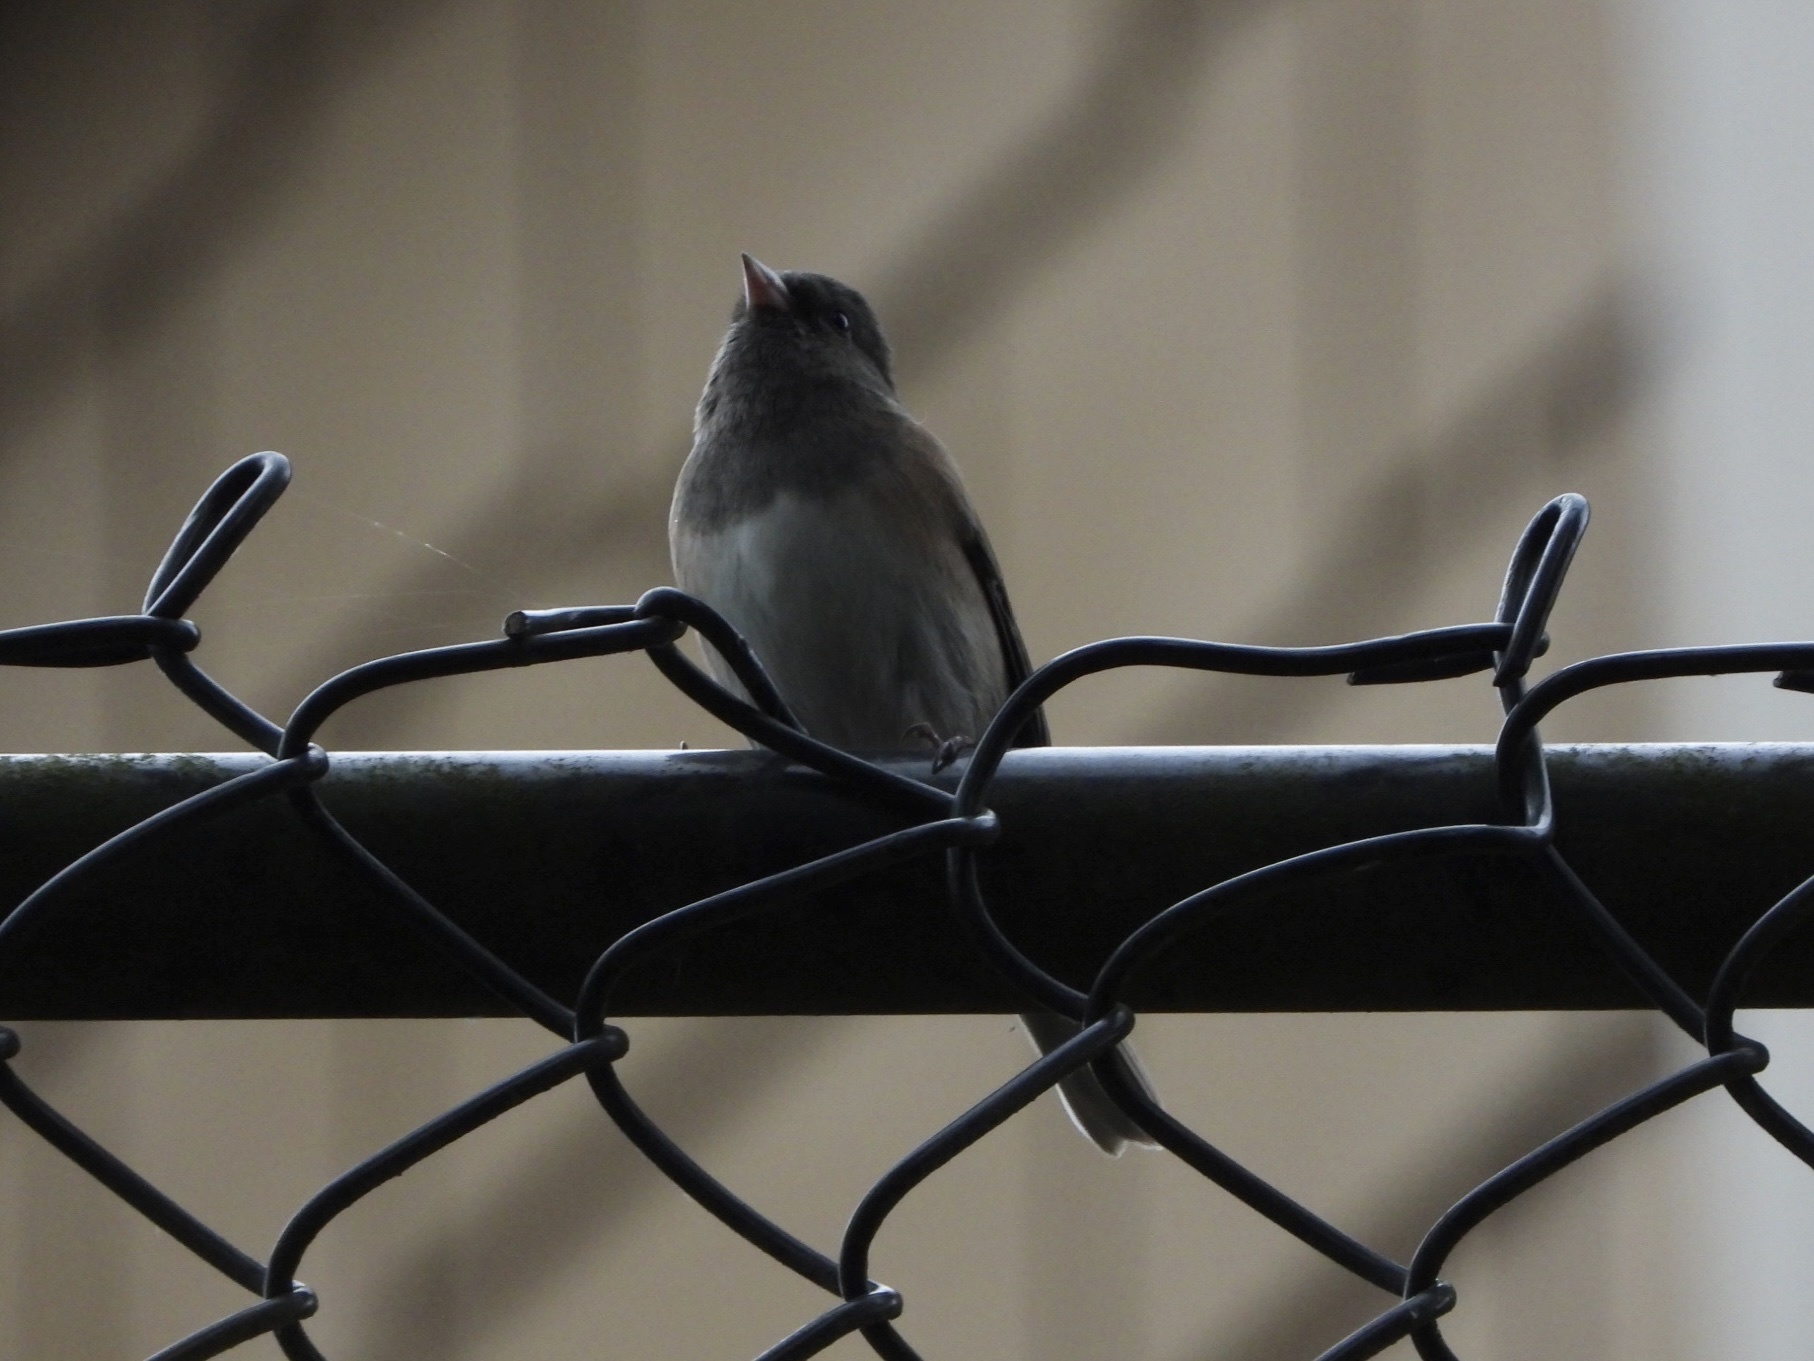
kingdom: Animalia
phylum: Chordata
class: Aves
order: Passeriformes
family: Passerellidae
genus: Junco
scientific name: Junco hyemalis
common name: Dark-eyed junco
